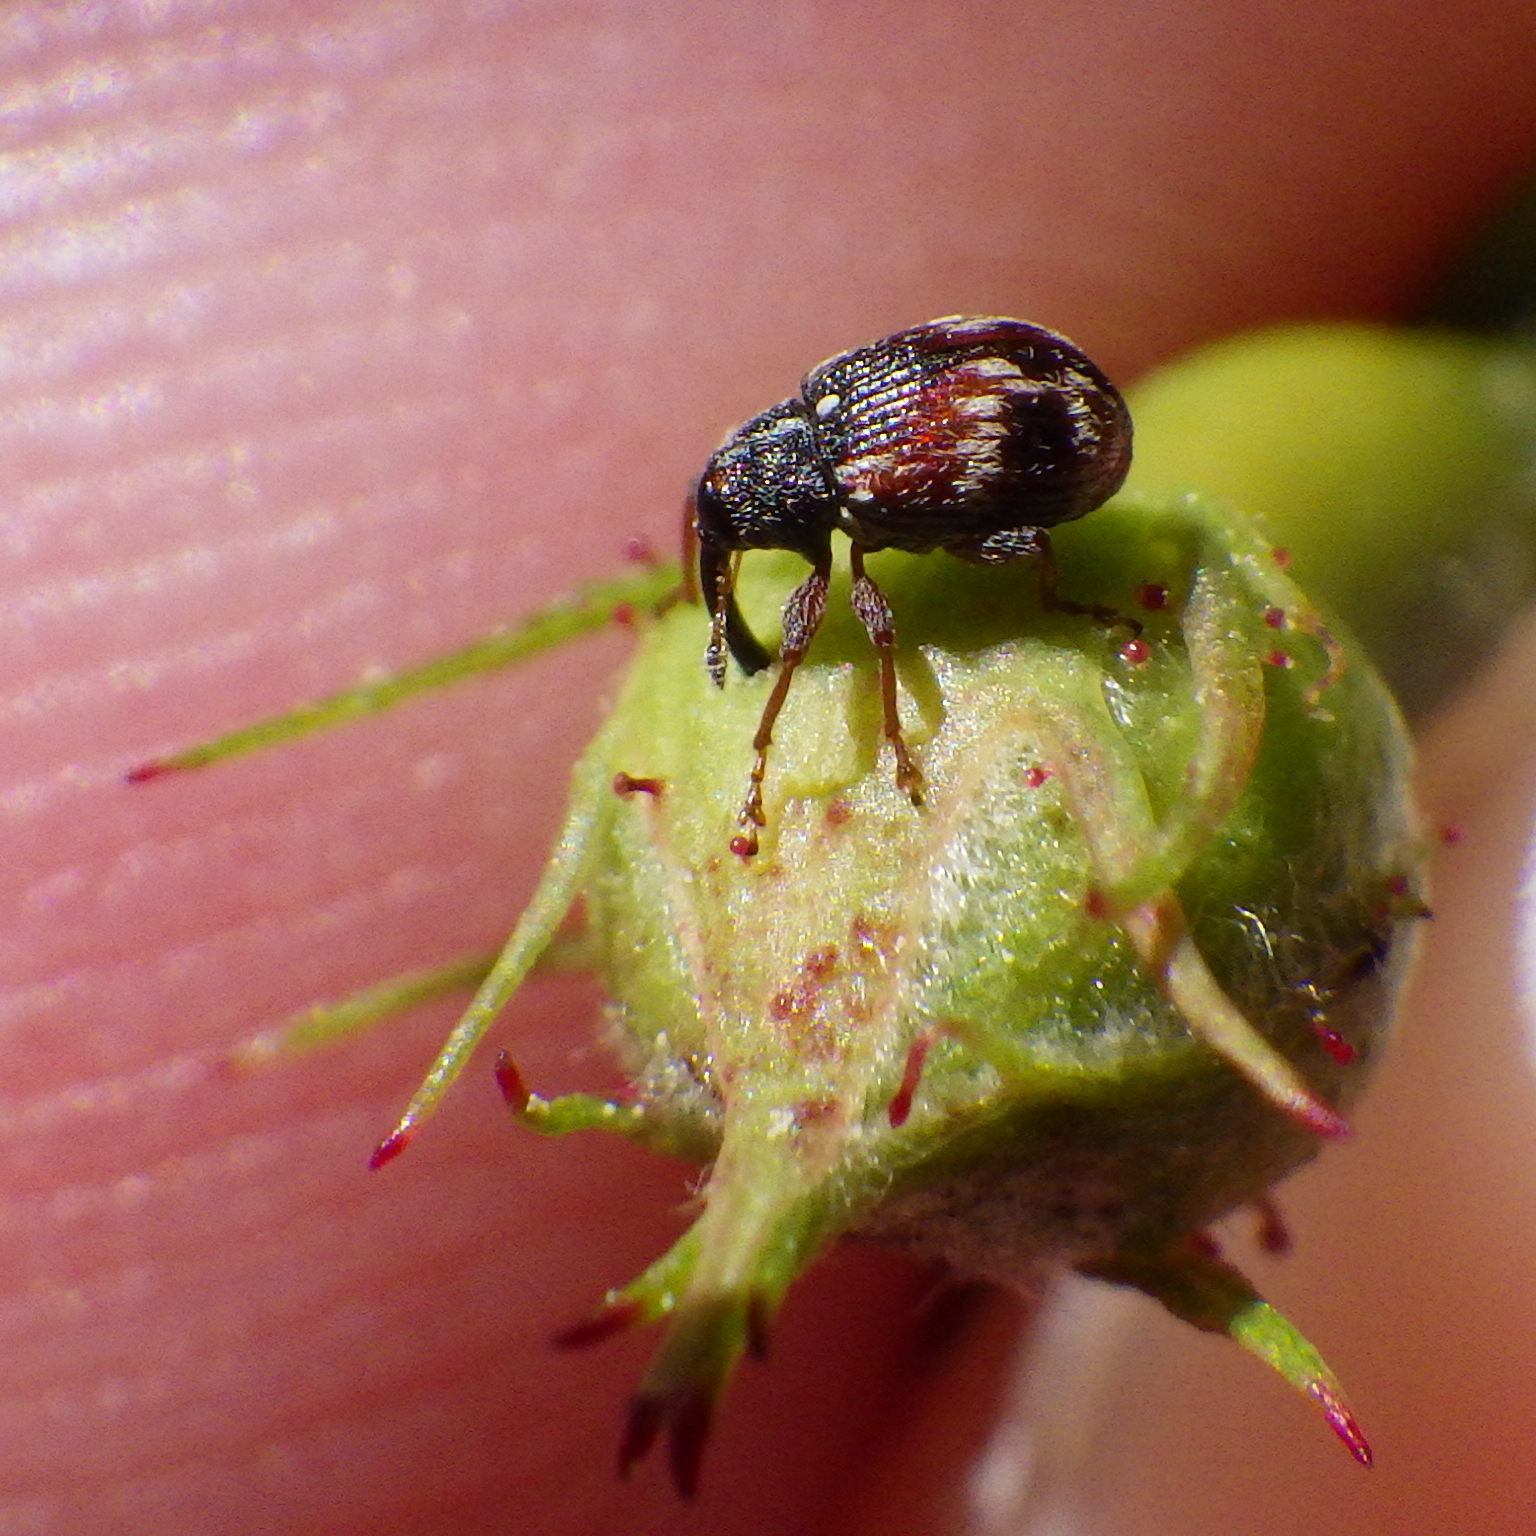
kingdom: Animalia
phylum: Arthropoda
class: Insecta
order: Coleoptera
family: Curculionidae
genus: Anthonomus
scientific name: Anthonomus signatus
